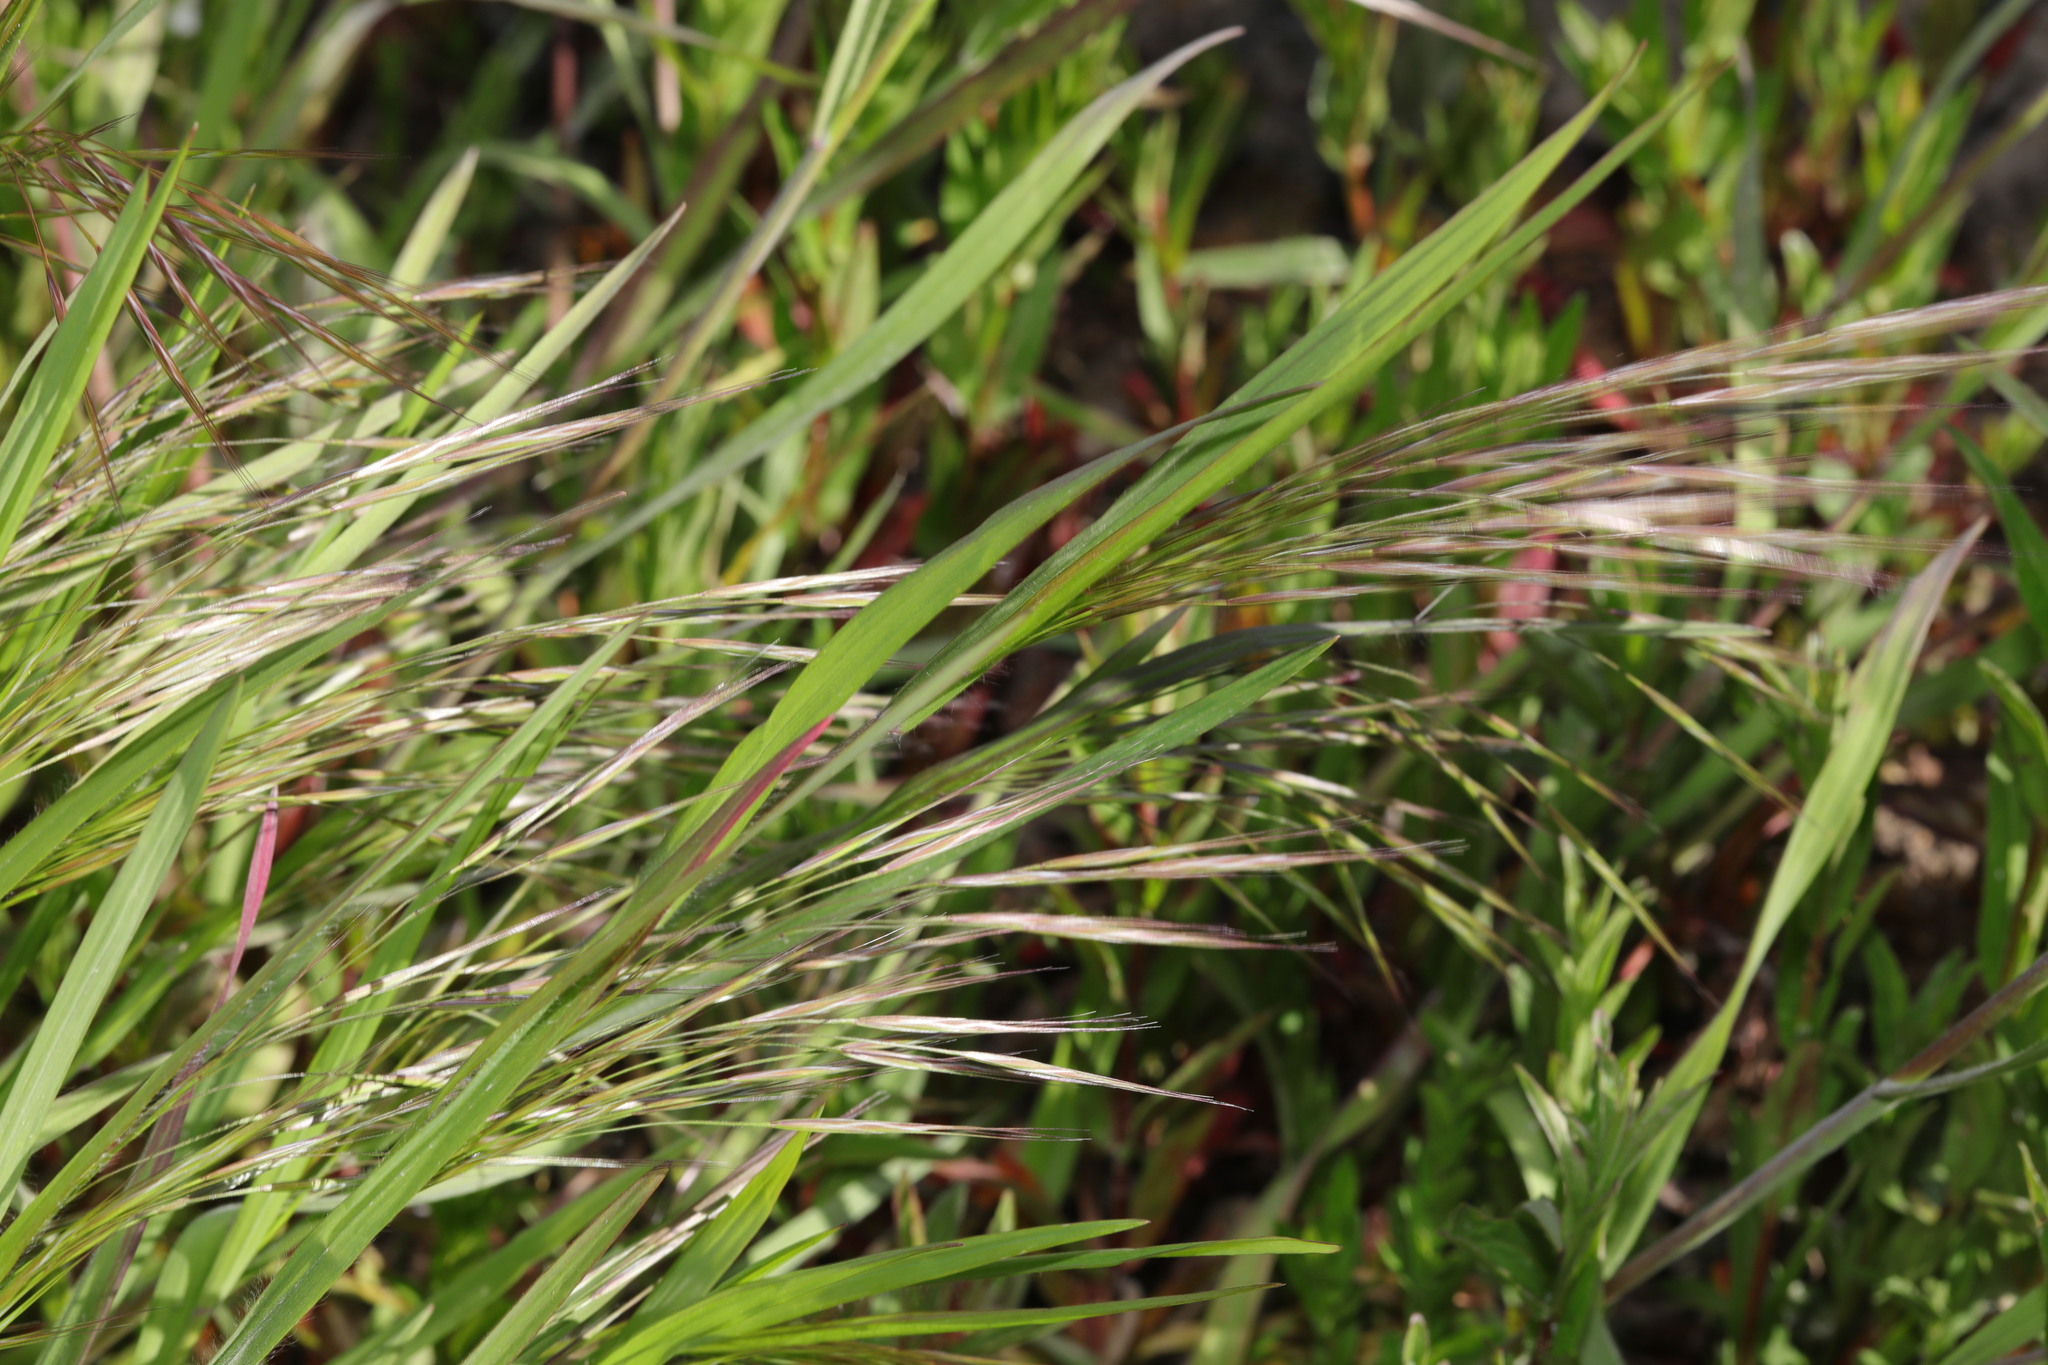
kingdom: Plantae
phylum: Tracheophyta
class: Liliopsida
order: Poales
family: Poaceae
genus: Bromus
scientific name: Bromus sterilis
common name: Poverty brome
